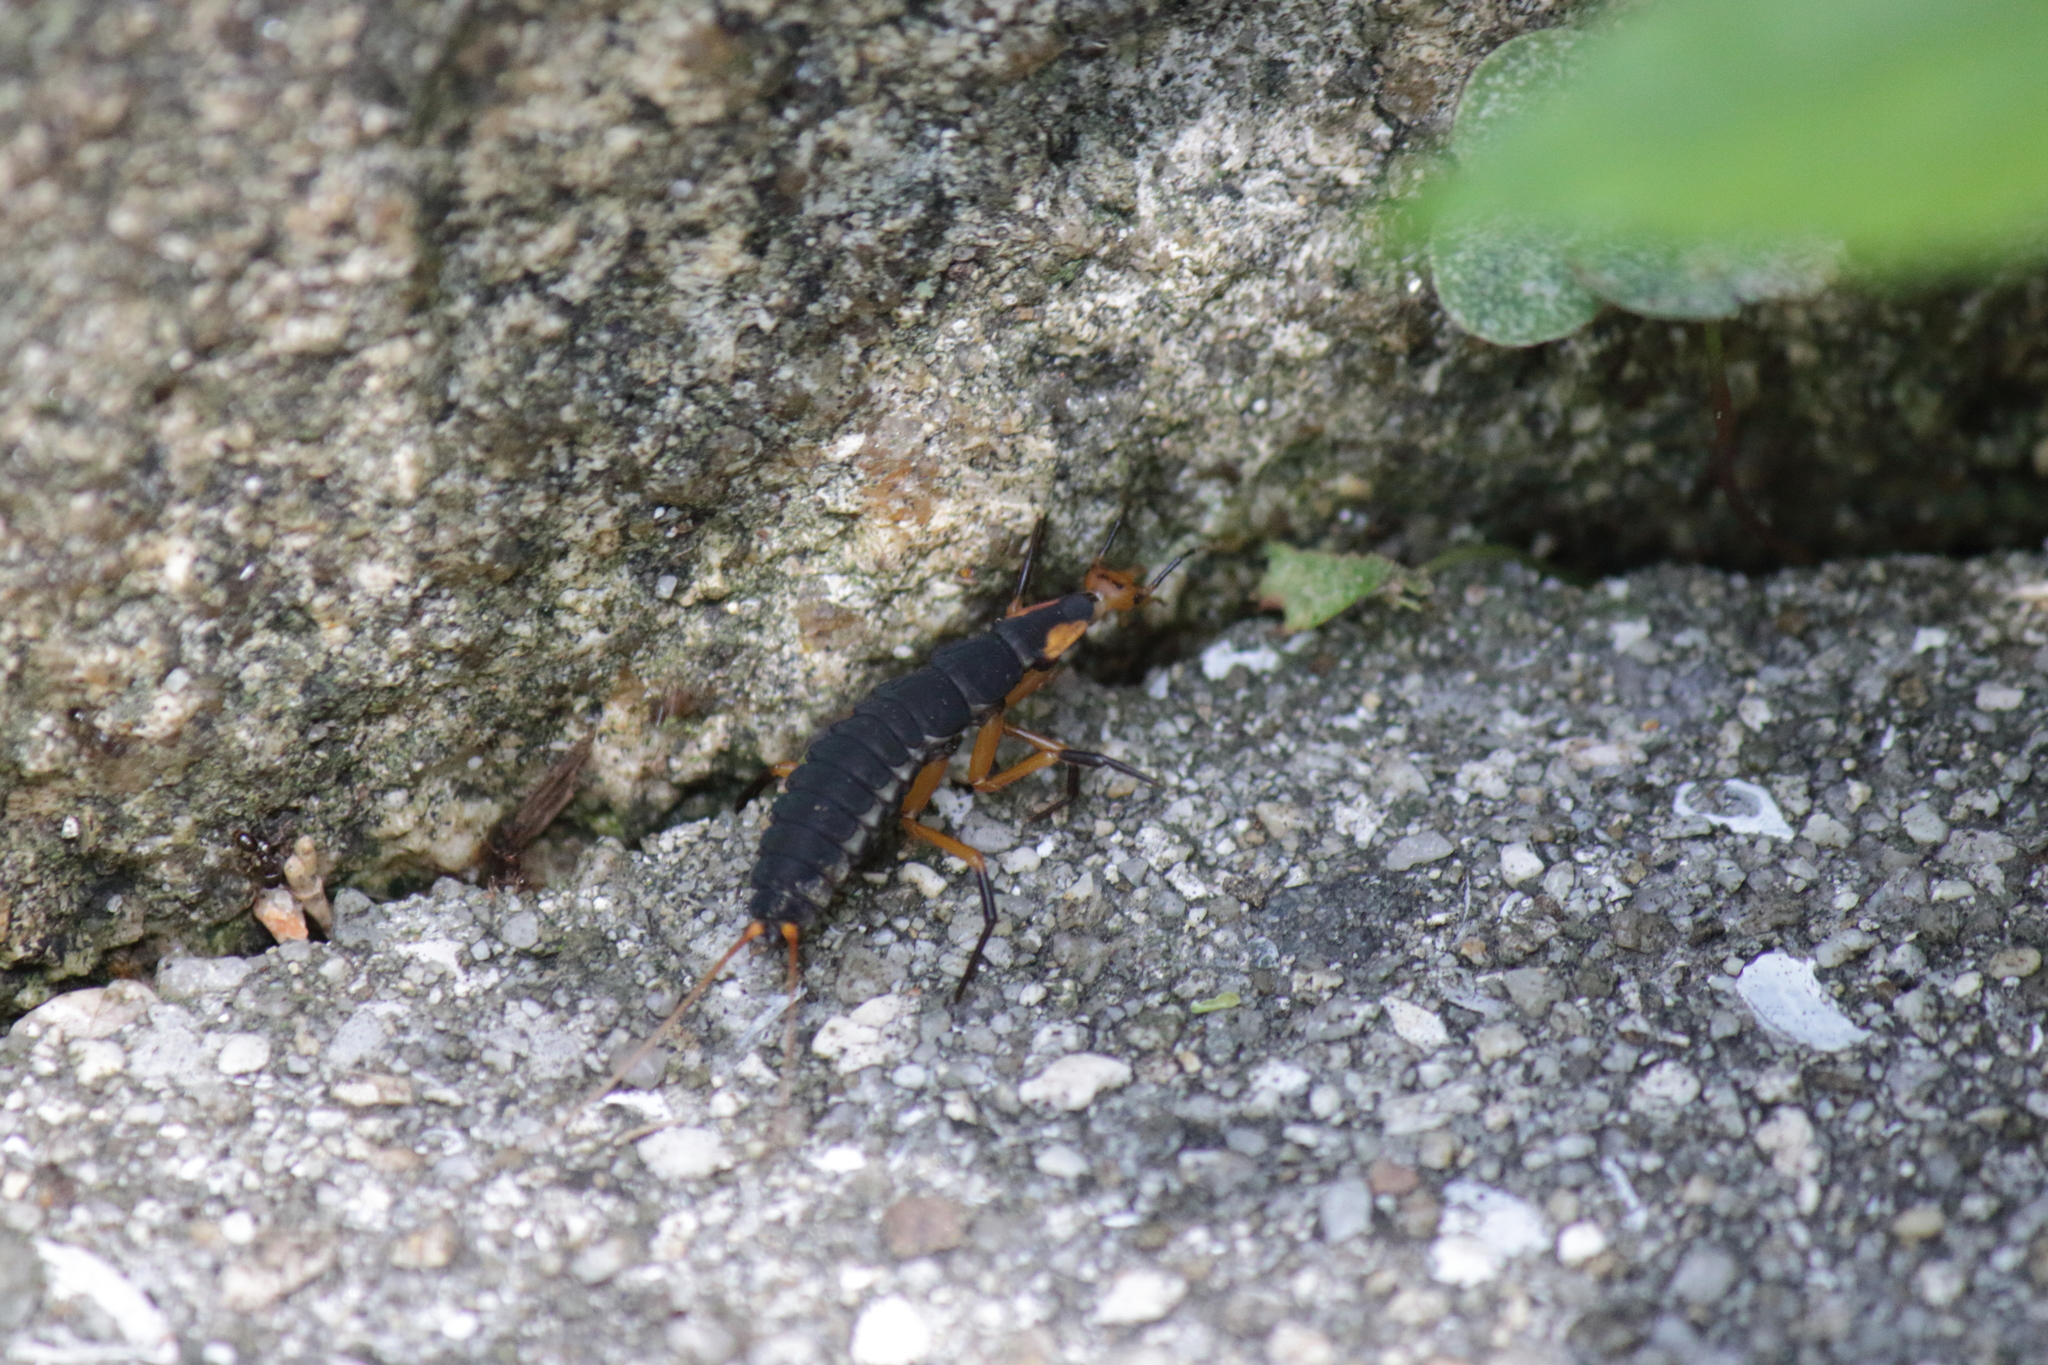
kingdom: Animalia
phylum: Arthropoda
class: Insecta
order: Coleoptera
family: Carabidae
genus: Galerita
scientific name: Galerita orientalis
